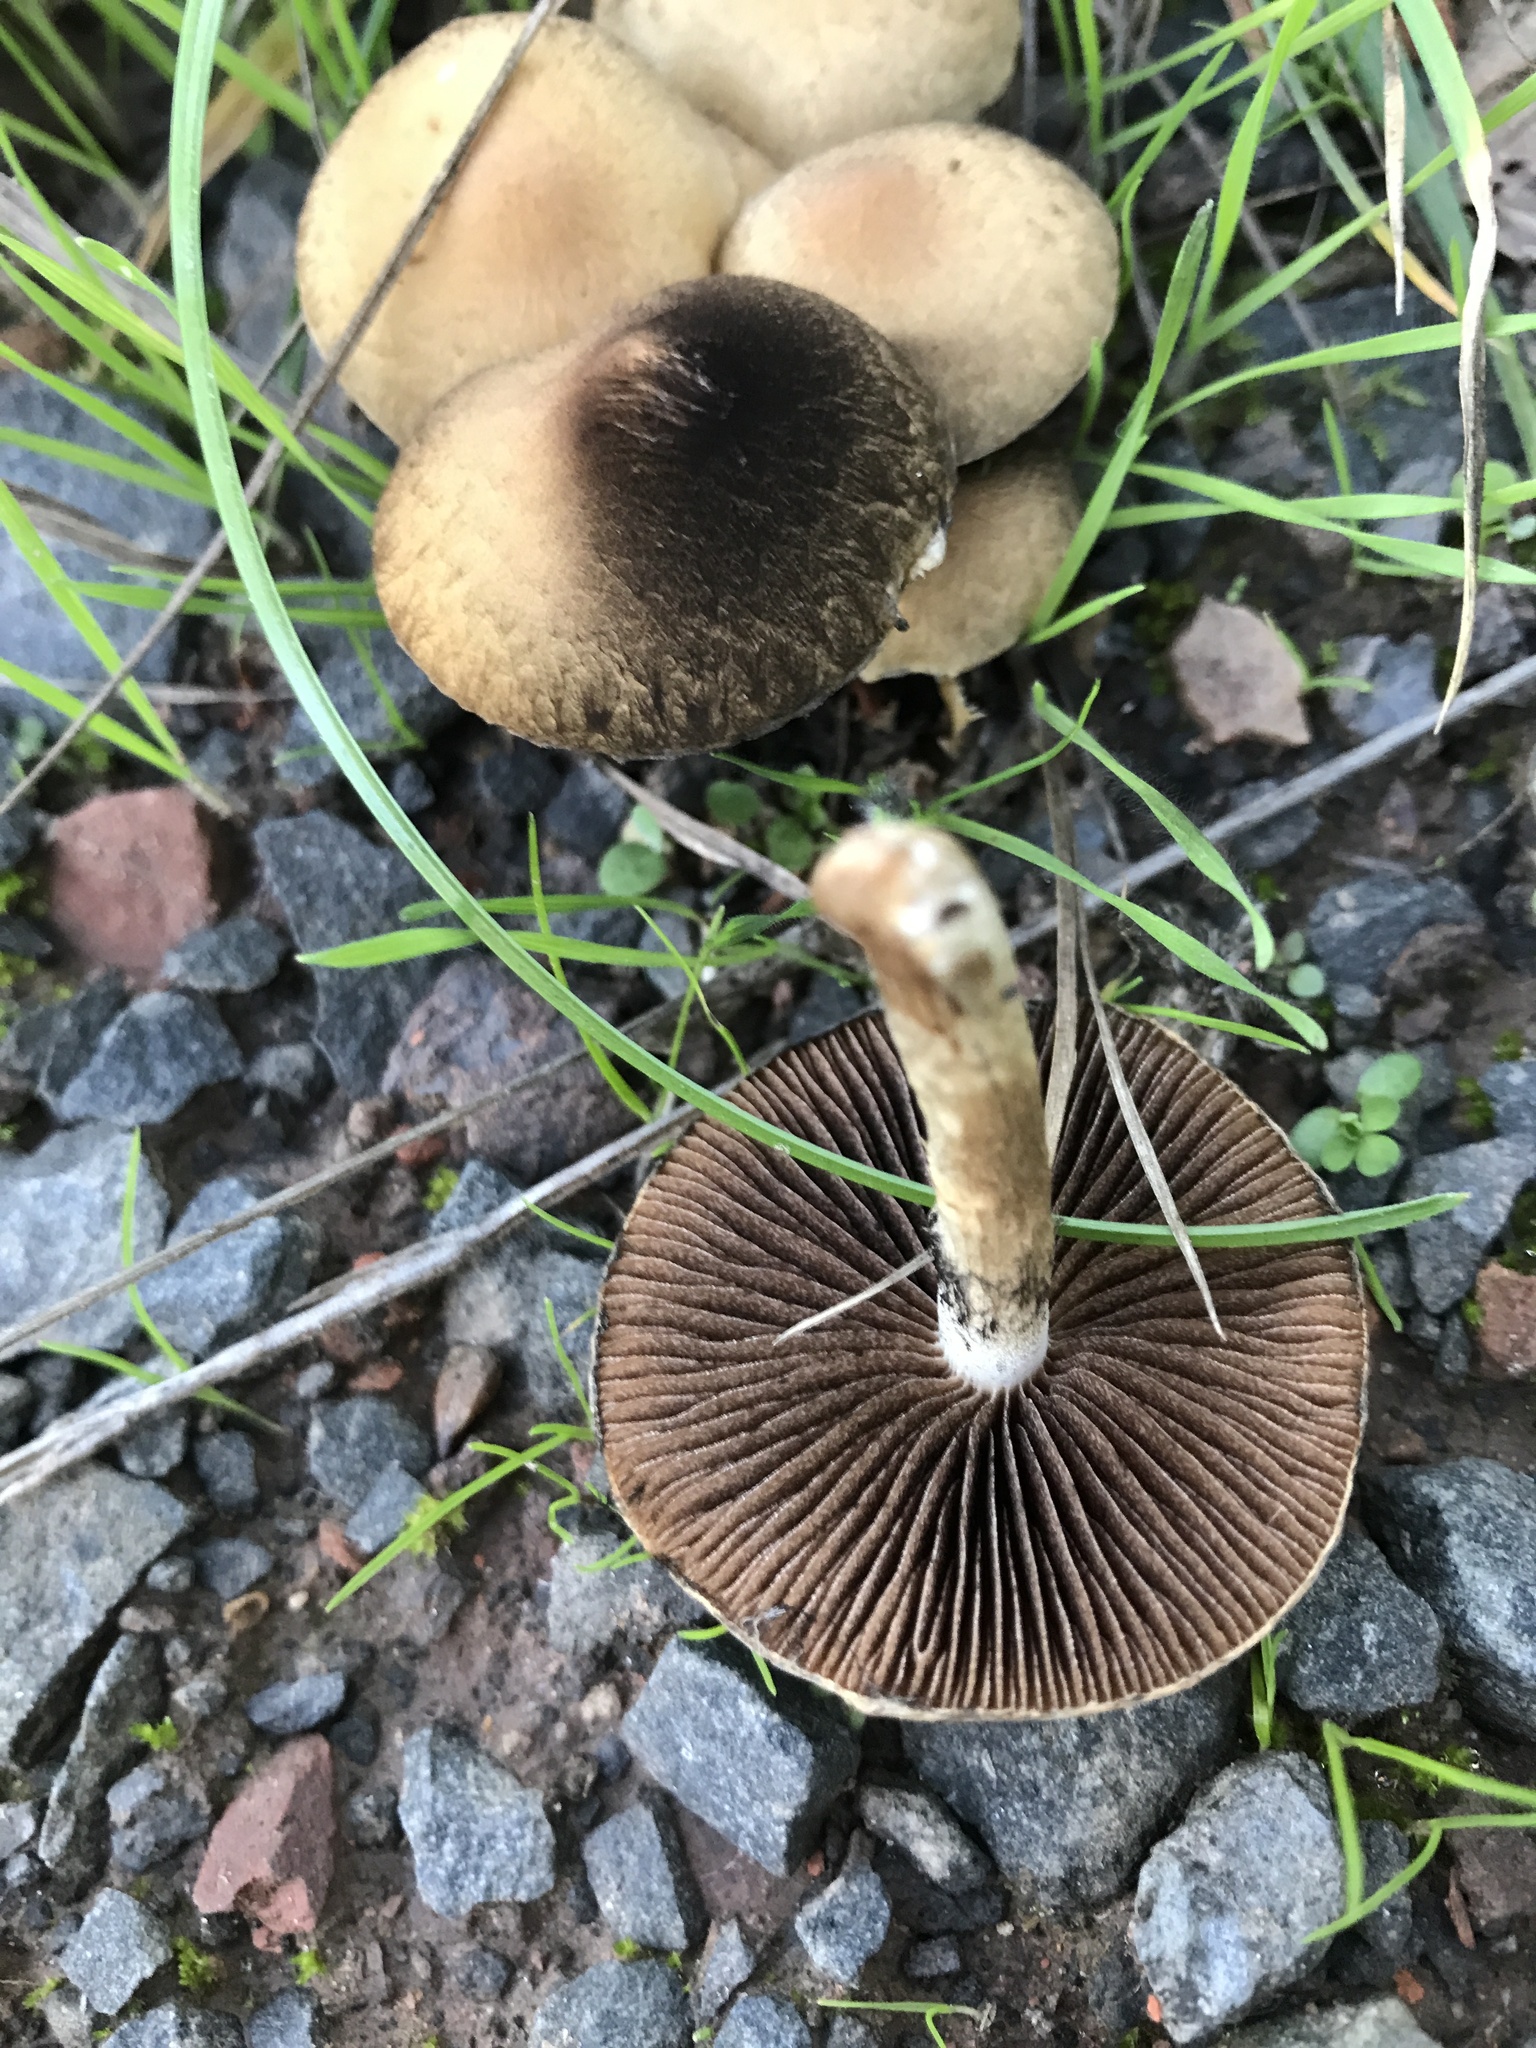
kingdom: Fungi
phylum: Basidiomycota
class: Agaricomycetes
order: Agaricales
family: Psathyrellaceae
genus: Lacrymaria
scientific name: Lacrymaria lacrymabunda
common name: Weeping widow
